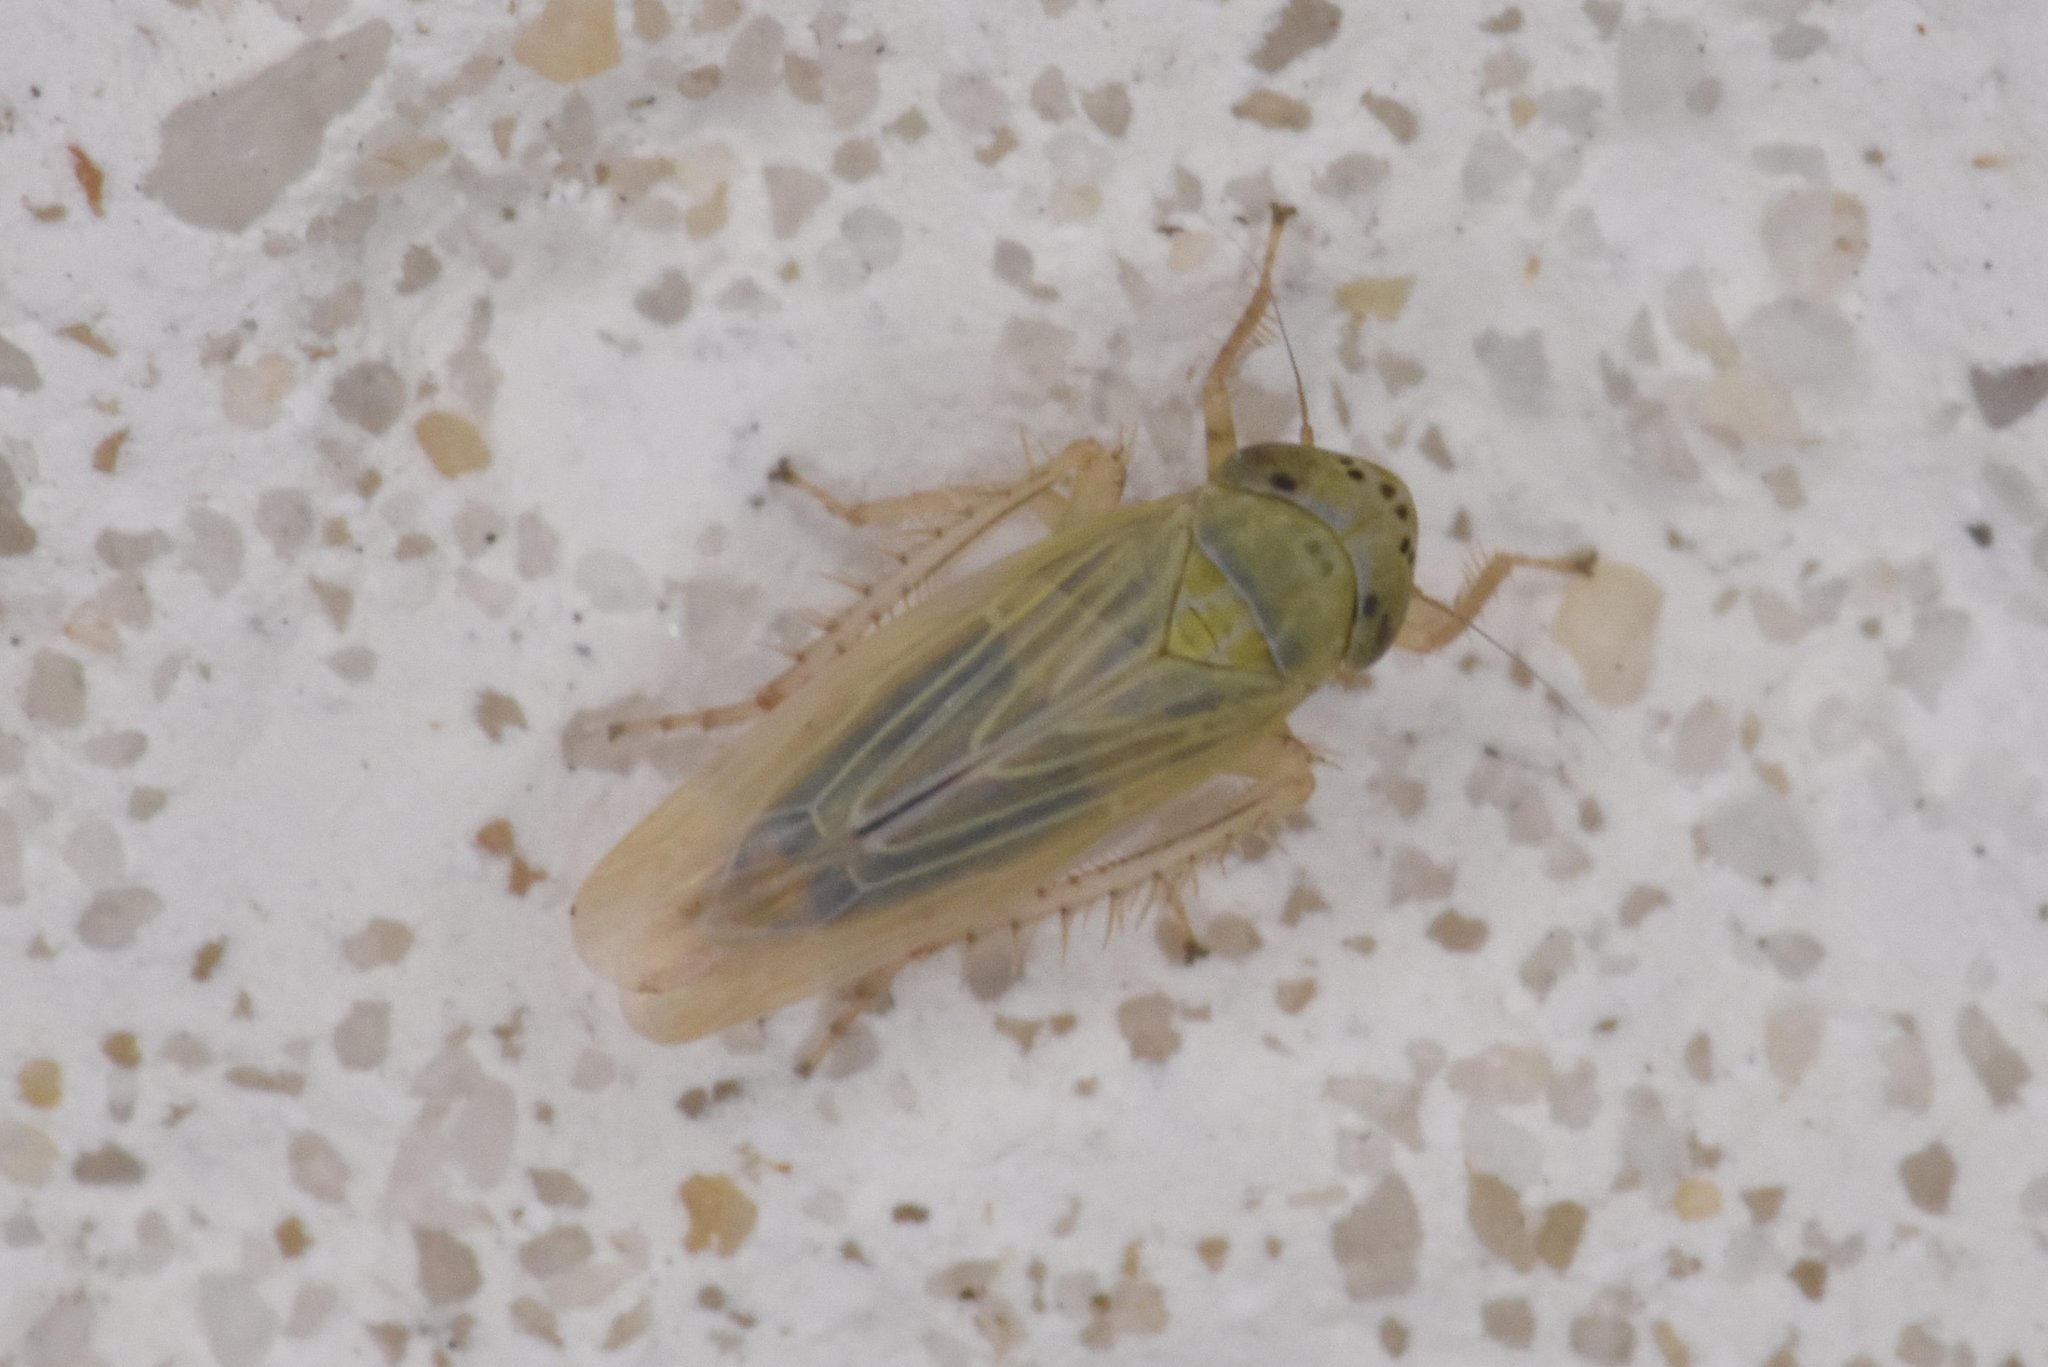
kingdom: Animalia
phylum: Arthropoda
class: Insecta
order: Hemiptera
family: Cicadellidae
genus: Graminella
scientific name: Graminella nigrifrons
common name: Blackfaced leafhopper
